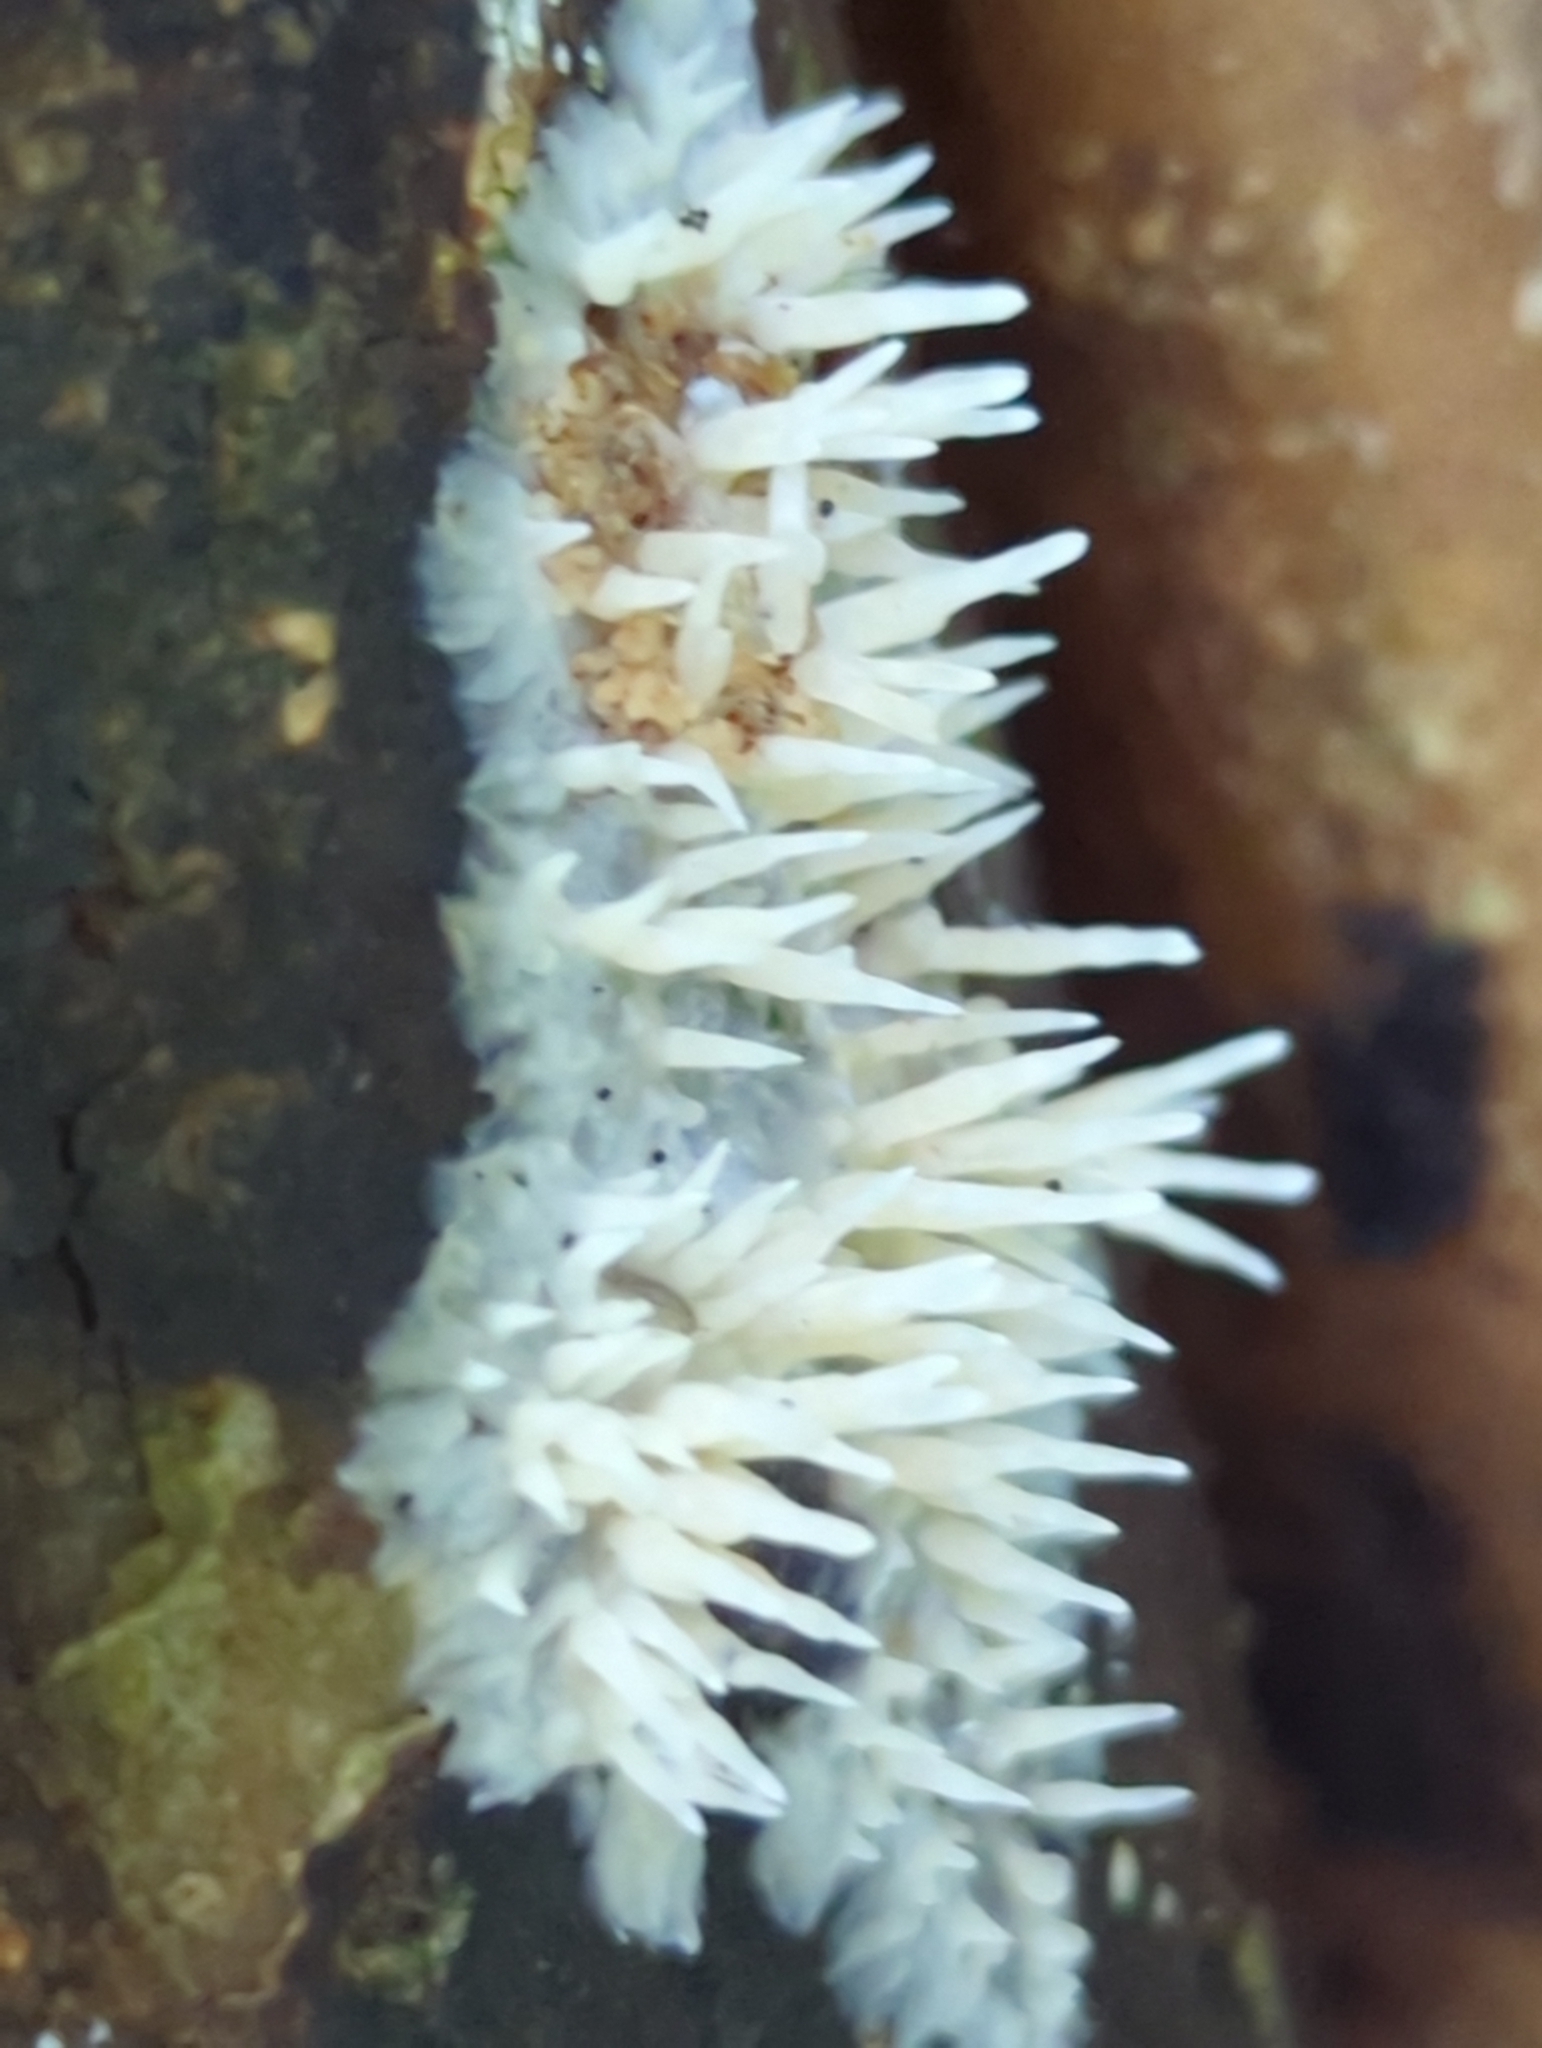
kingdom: Fungi
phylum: Basidiomycota
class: Agaricomycetes
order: Agaricales
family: Radulomycetaceae
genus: Radulomyces
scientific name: Radulomyces copelandii
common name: Asian beauty
